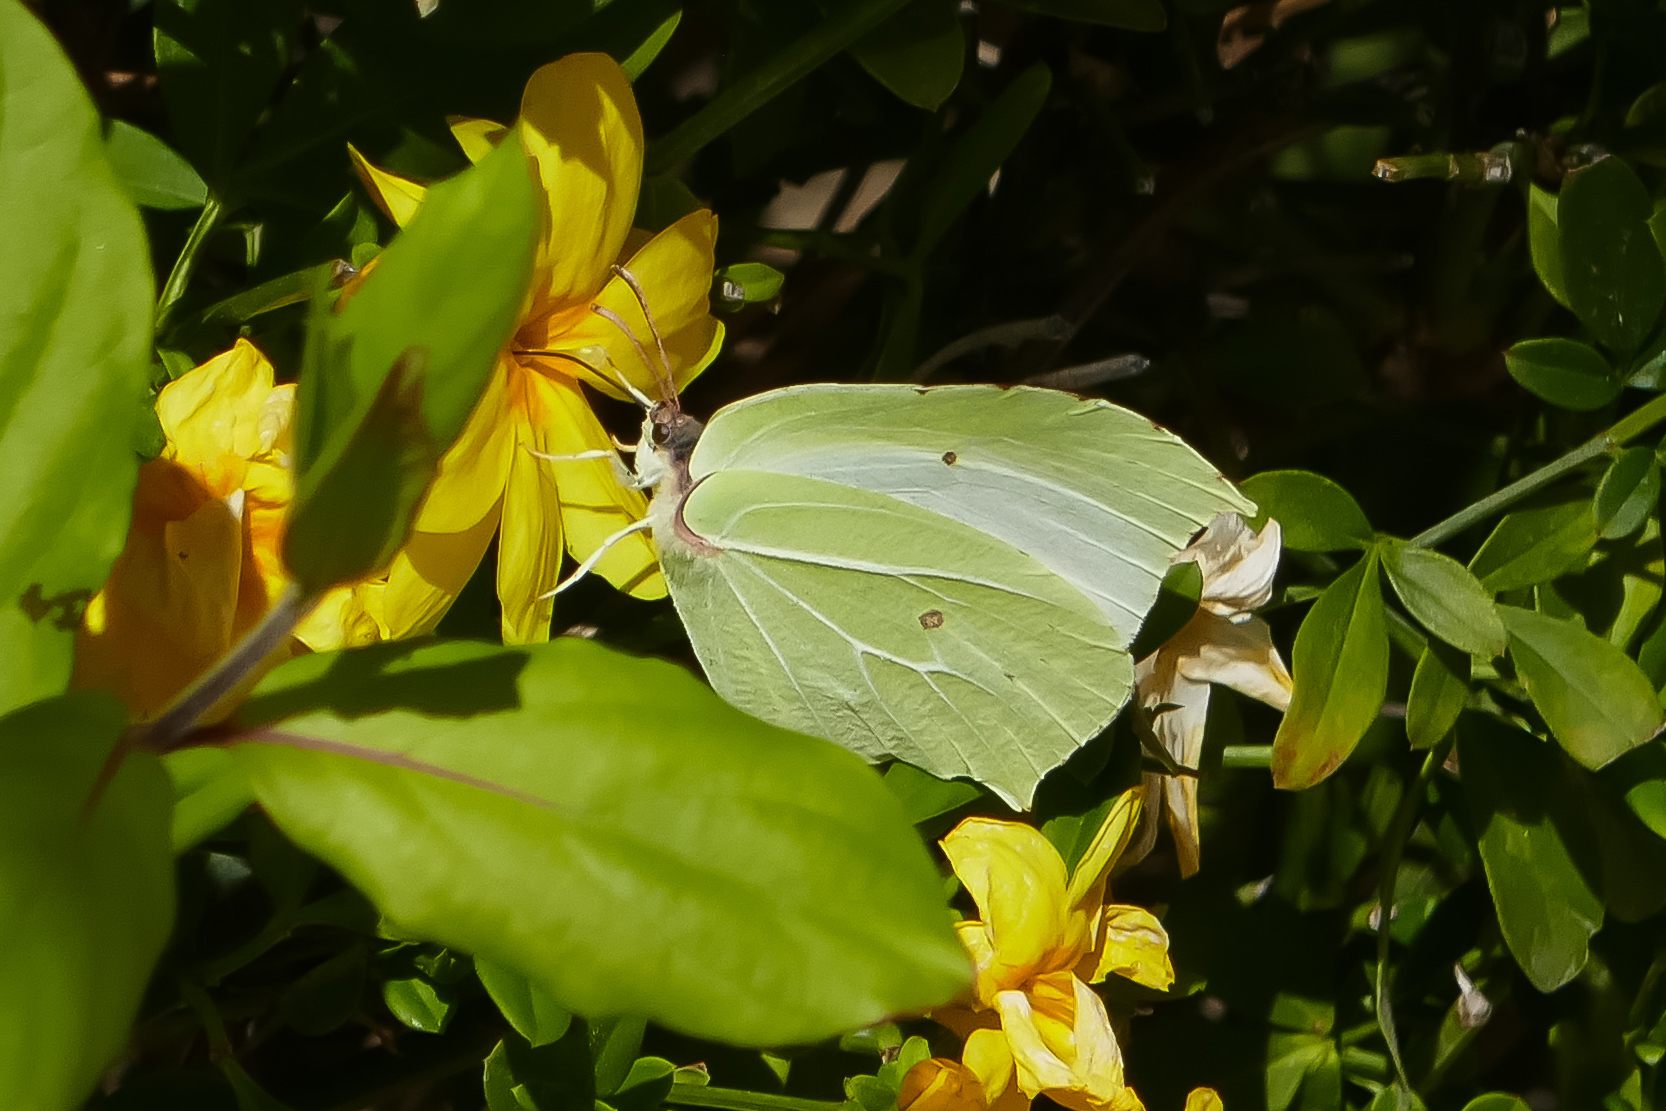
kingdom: Animalia
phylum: Arthropoda
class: Insecta
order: Lepidoptera
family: Pieridae
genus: Gonepteryx
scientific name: Gonepteryx rhamni
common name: Brimstone
